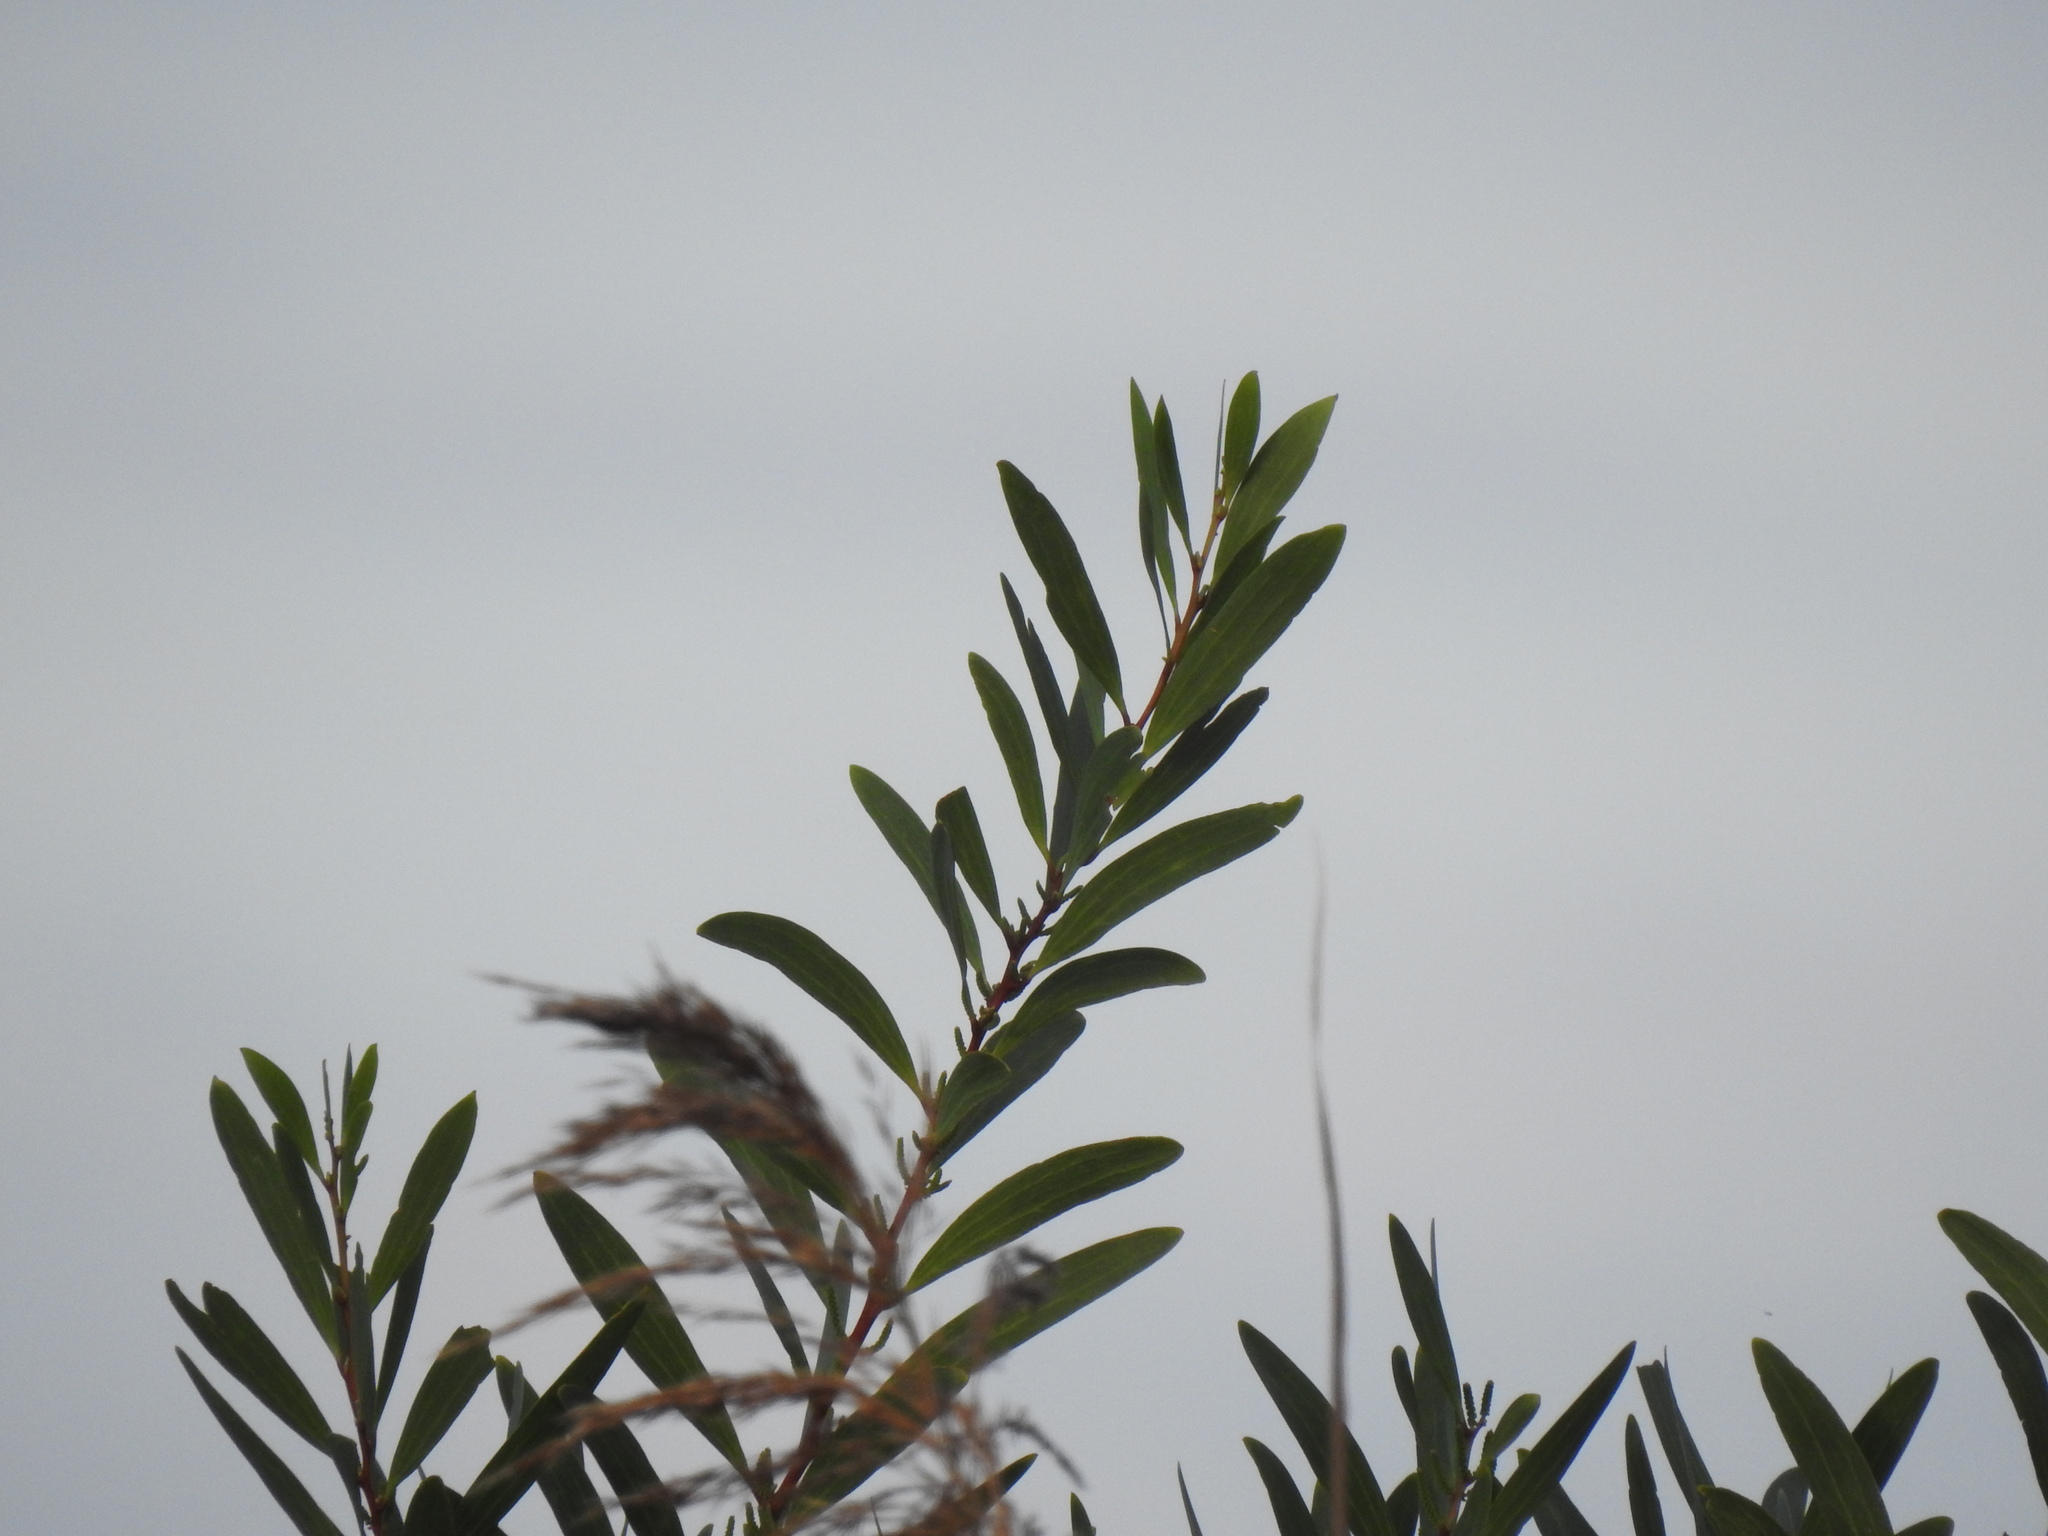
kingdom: Plantae
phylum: Tracheophyta
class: Magnoliopsida
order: Fabales
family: Fabaceae
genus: Acacia
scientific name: Acacia longifolia
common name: Sydney golden wattle
